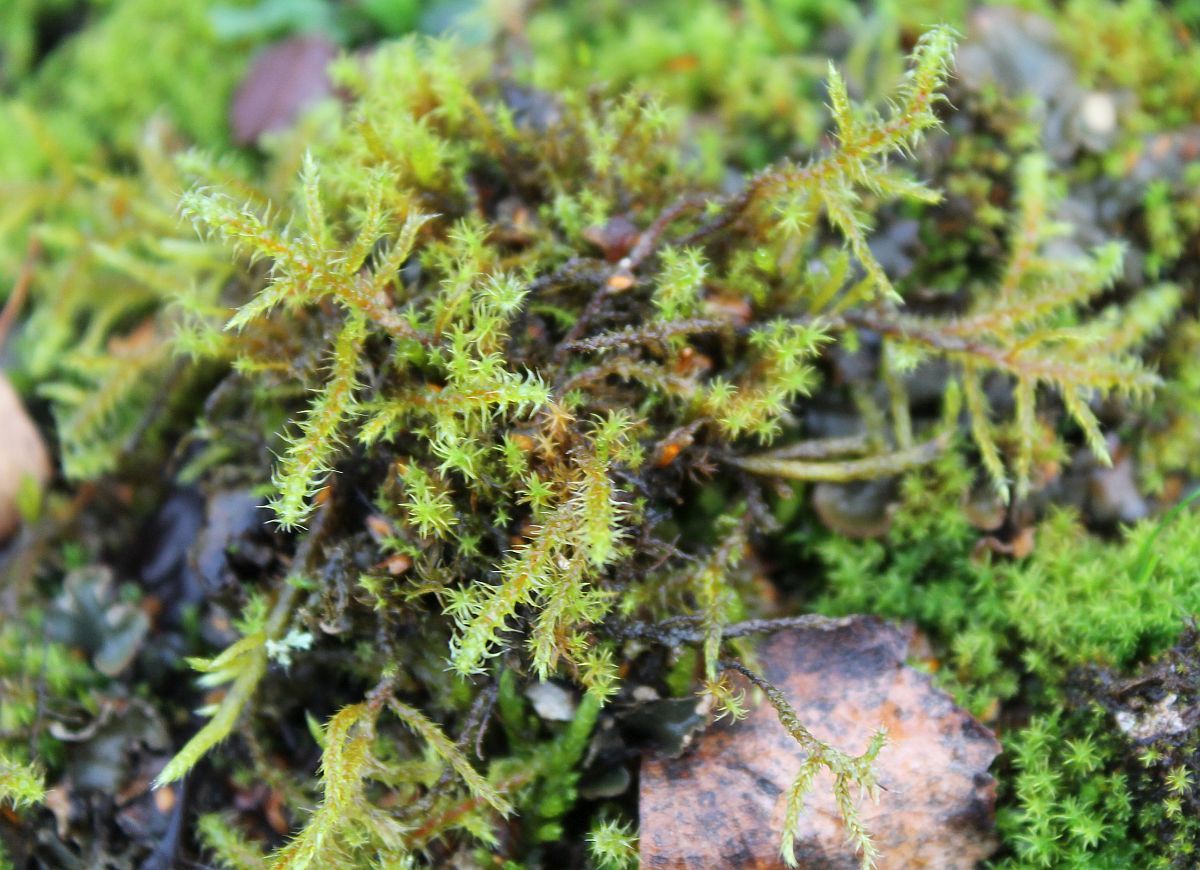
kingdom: Plantae
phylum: Bryophyta
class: Bryopsida
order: Hypnales
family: Hylocomiaceae
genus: Rhytidiadelphus
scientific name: Rhytidiadelphus squarrosus
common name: Springy turf-moss
